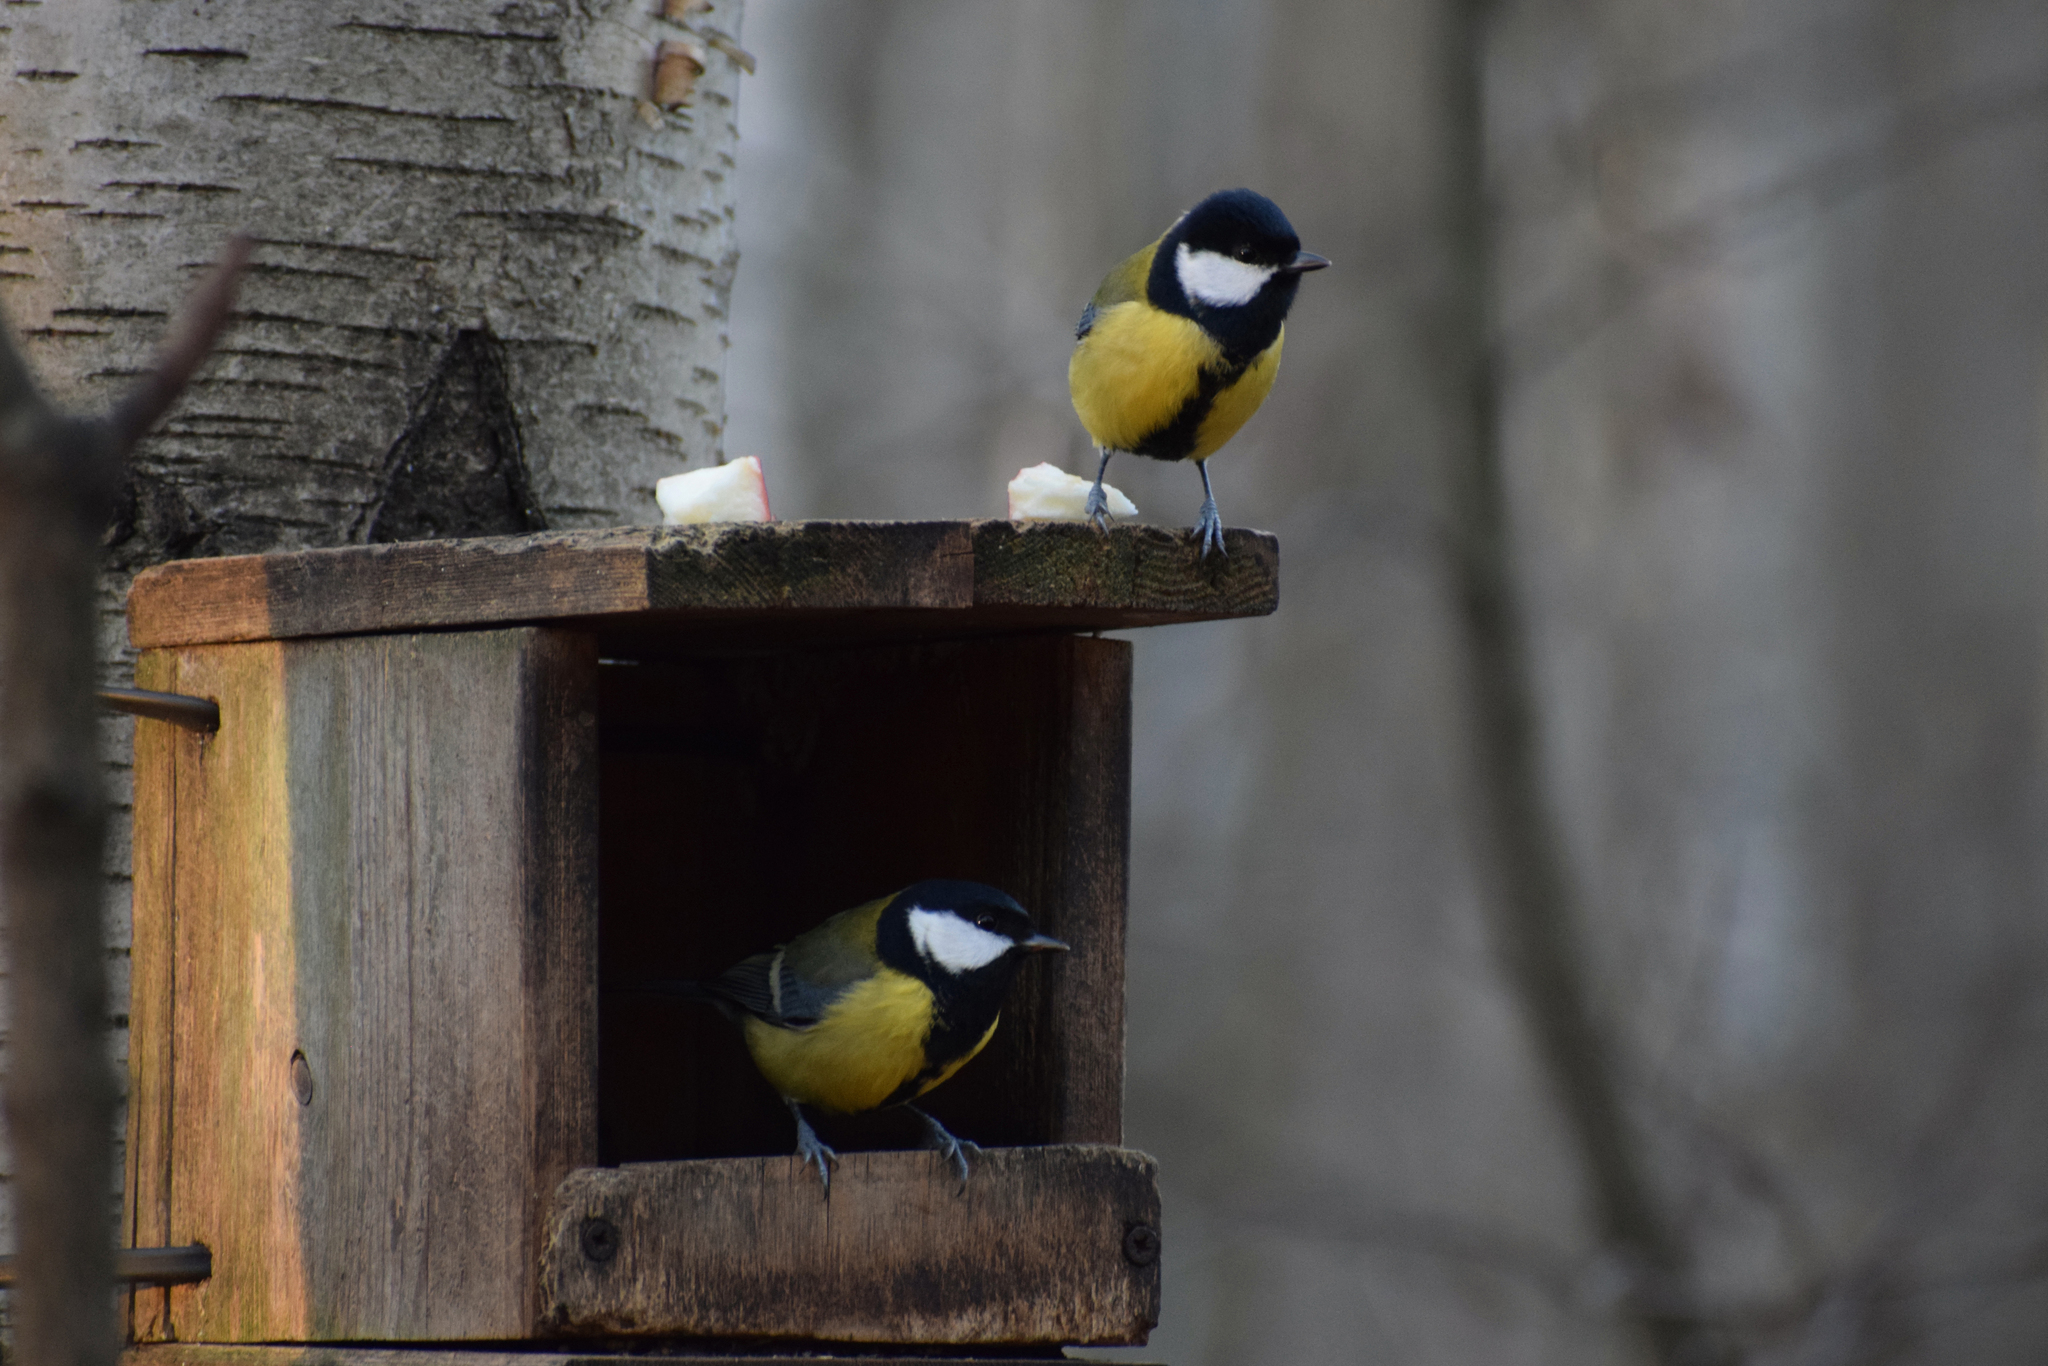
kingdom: Animalia
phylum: Chordata
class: Aves
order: Passeriformes
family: Paridae
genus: Parus
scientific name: Parus major
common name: Great tit
